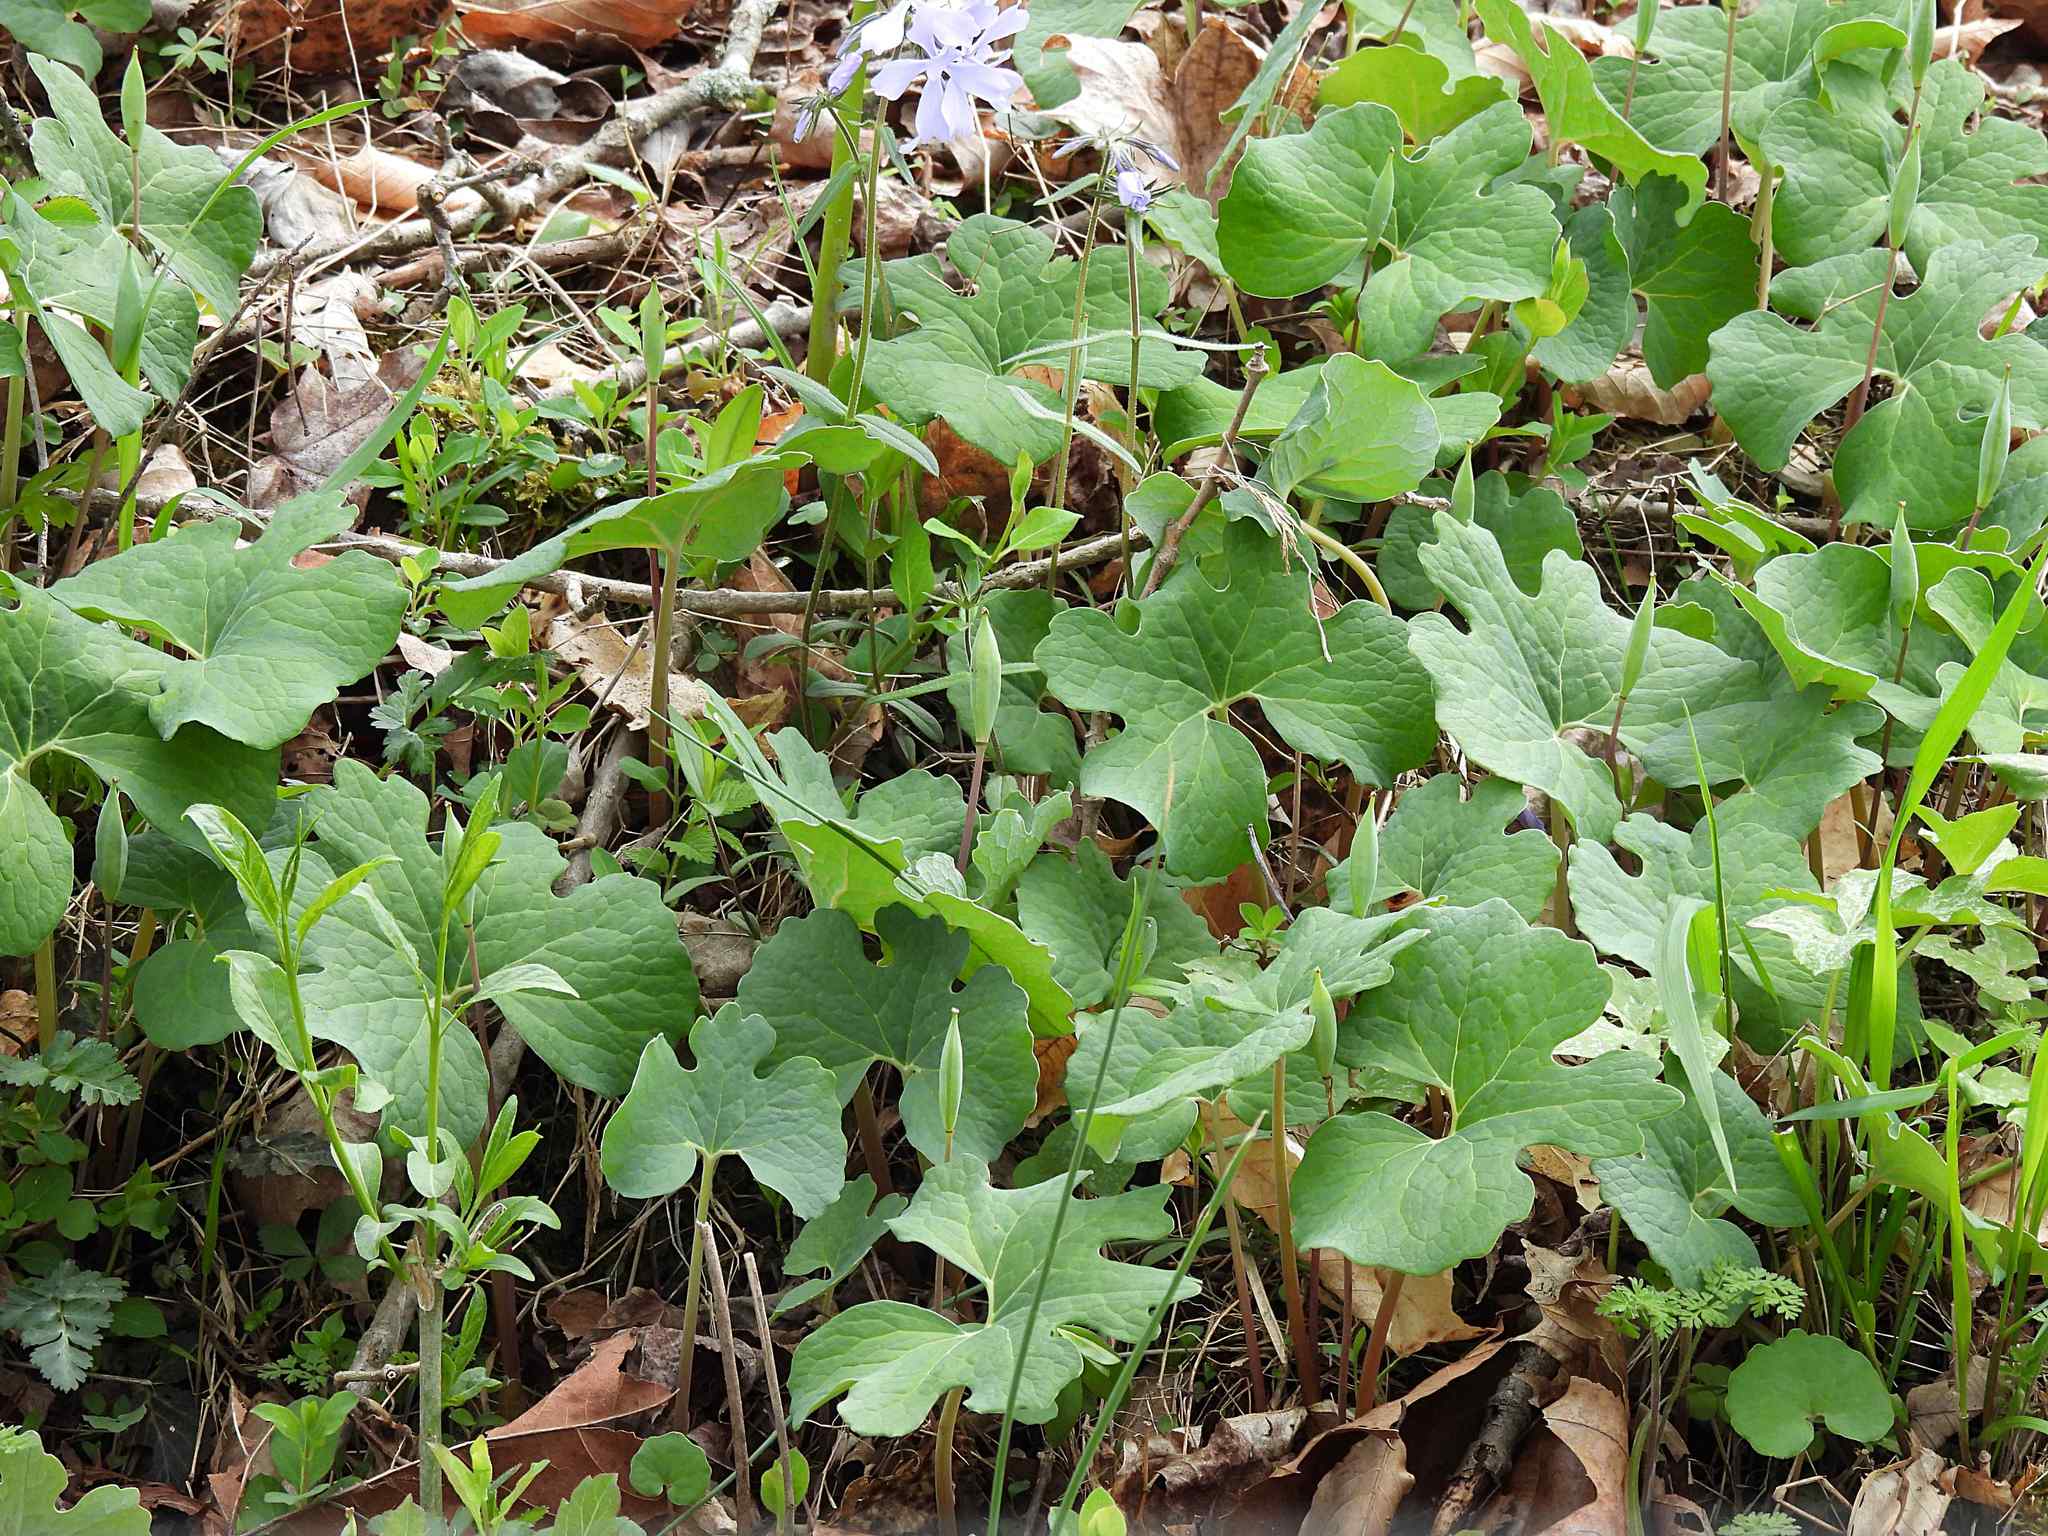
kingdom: Plantae
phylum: Tracheophyta
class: Magnoliopsida
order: Ranunculales
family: Papaveraceae
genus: Sanguinaria
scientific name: Sanguinaria canadensis
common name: Bloodroot
